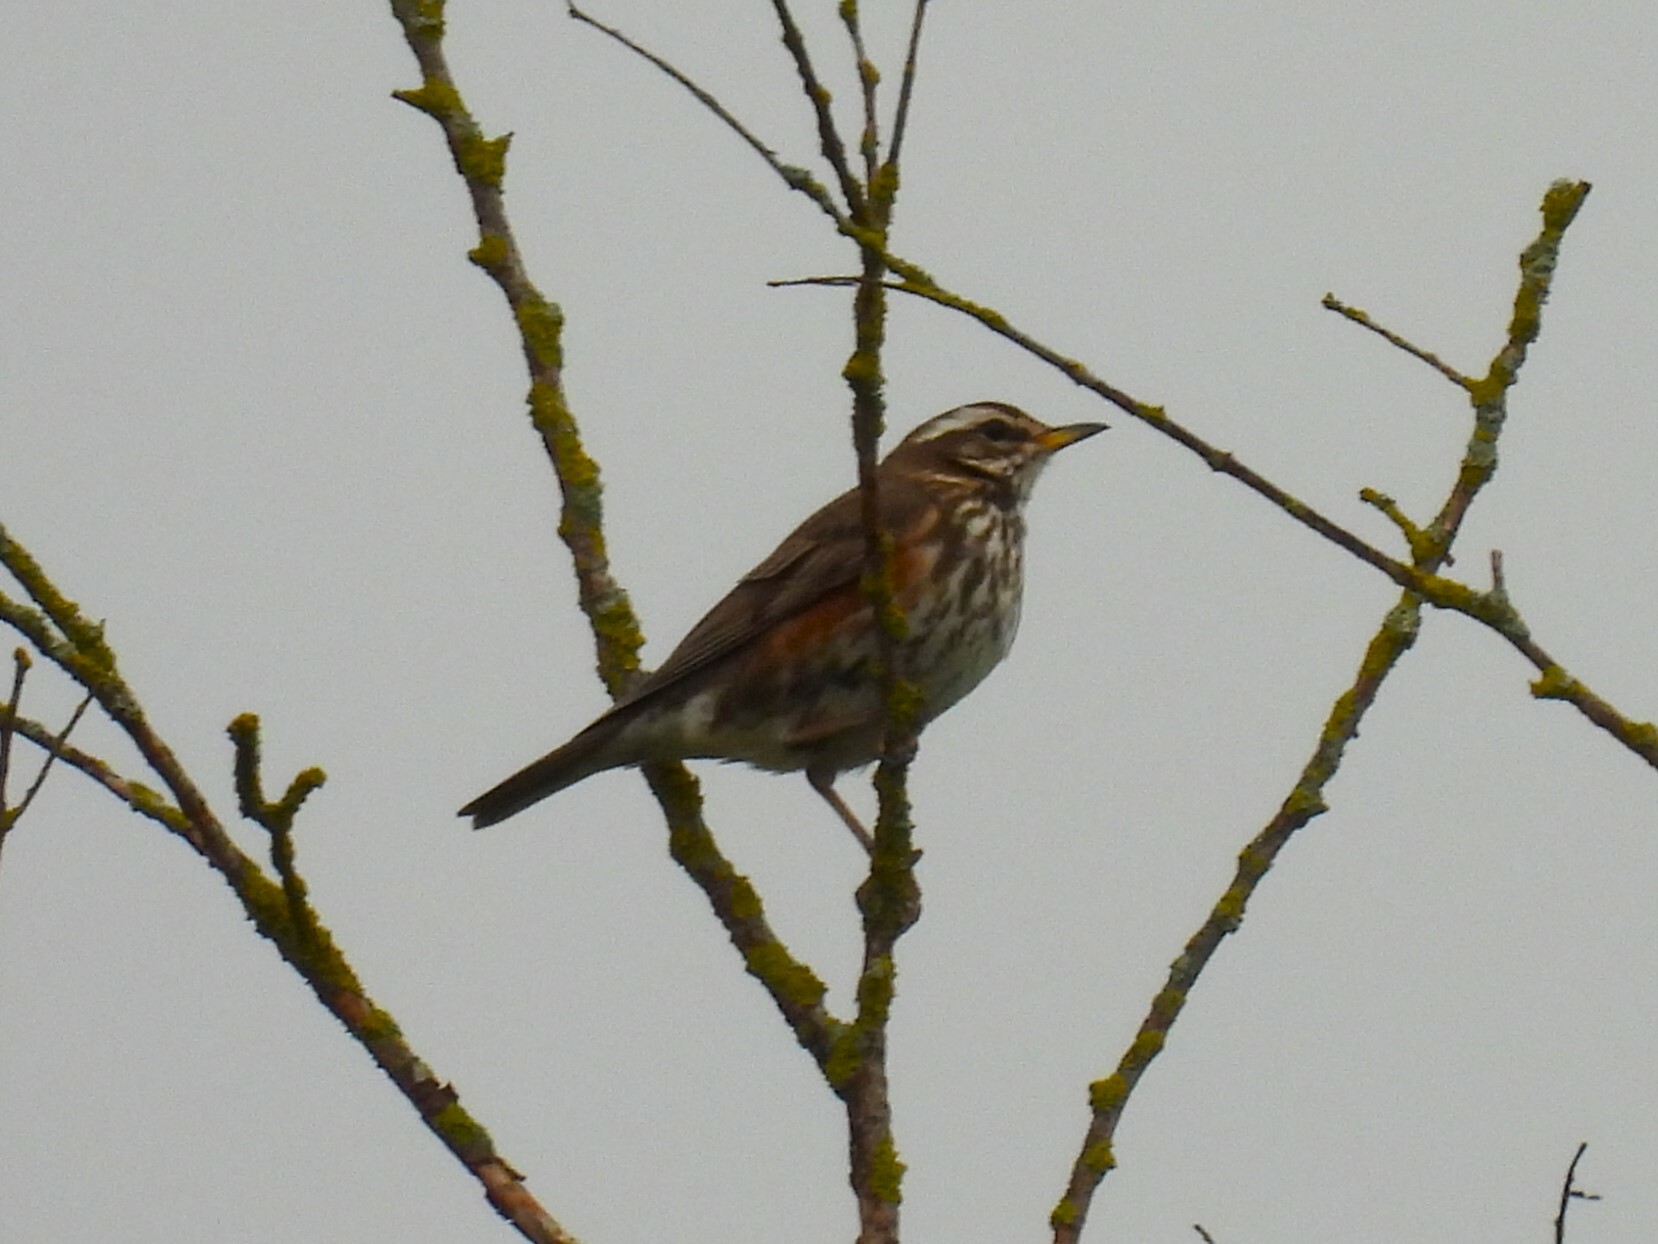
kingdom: Animalia
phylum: Chordata
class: Aves
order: Passeriformes
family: Turdidae
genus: Turdus
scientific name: Turdus iliacus
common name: Redwing
